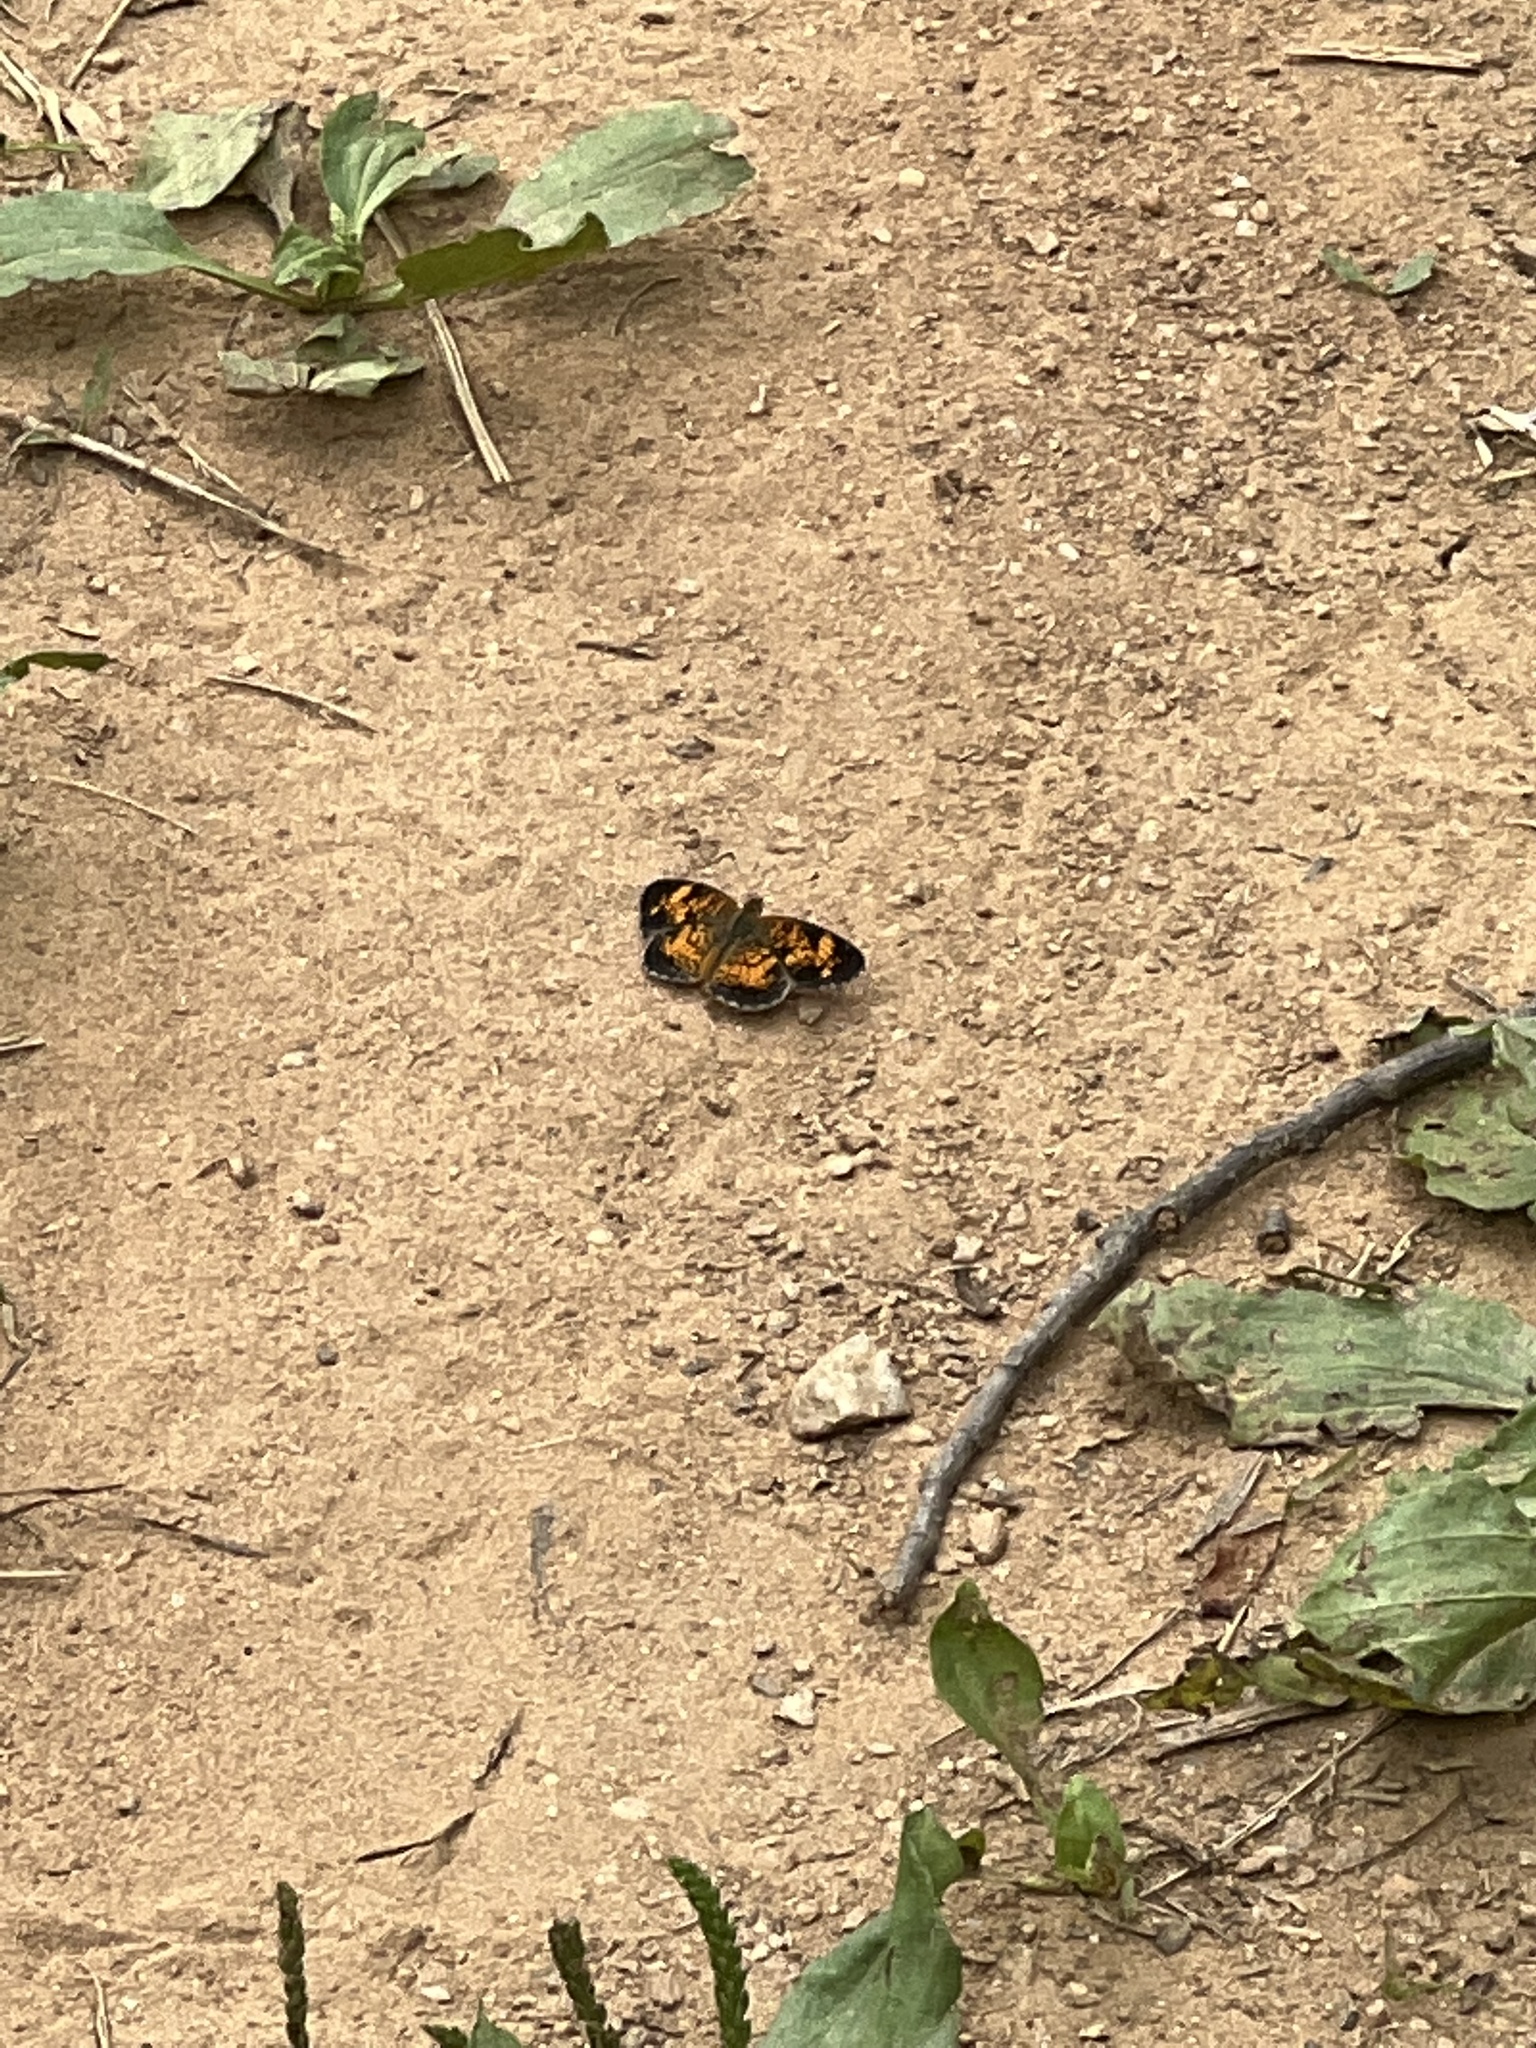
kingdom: Animalia
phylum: Arthropoda
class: Insecta
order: Lepidoptera
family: Nymphalidae
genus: Phyciodes
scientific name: Phyciodes tharos
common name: Pearl crescent
